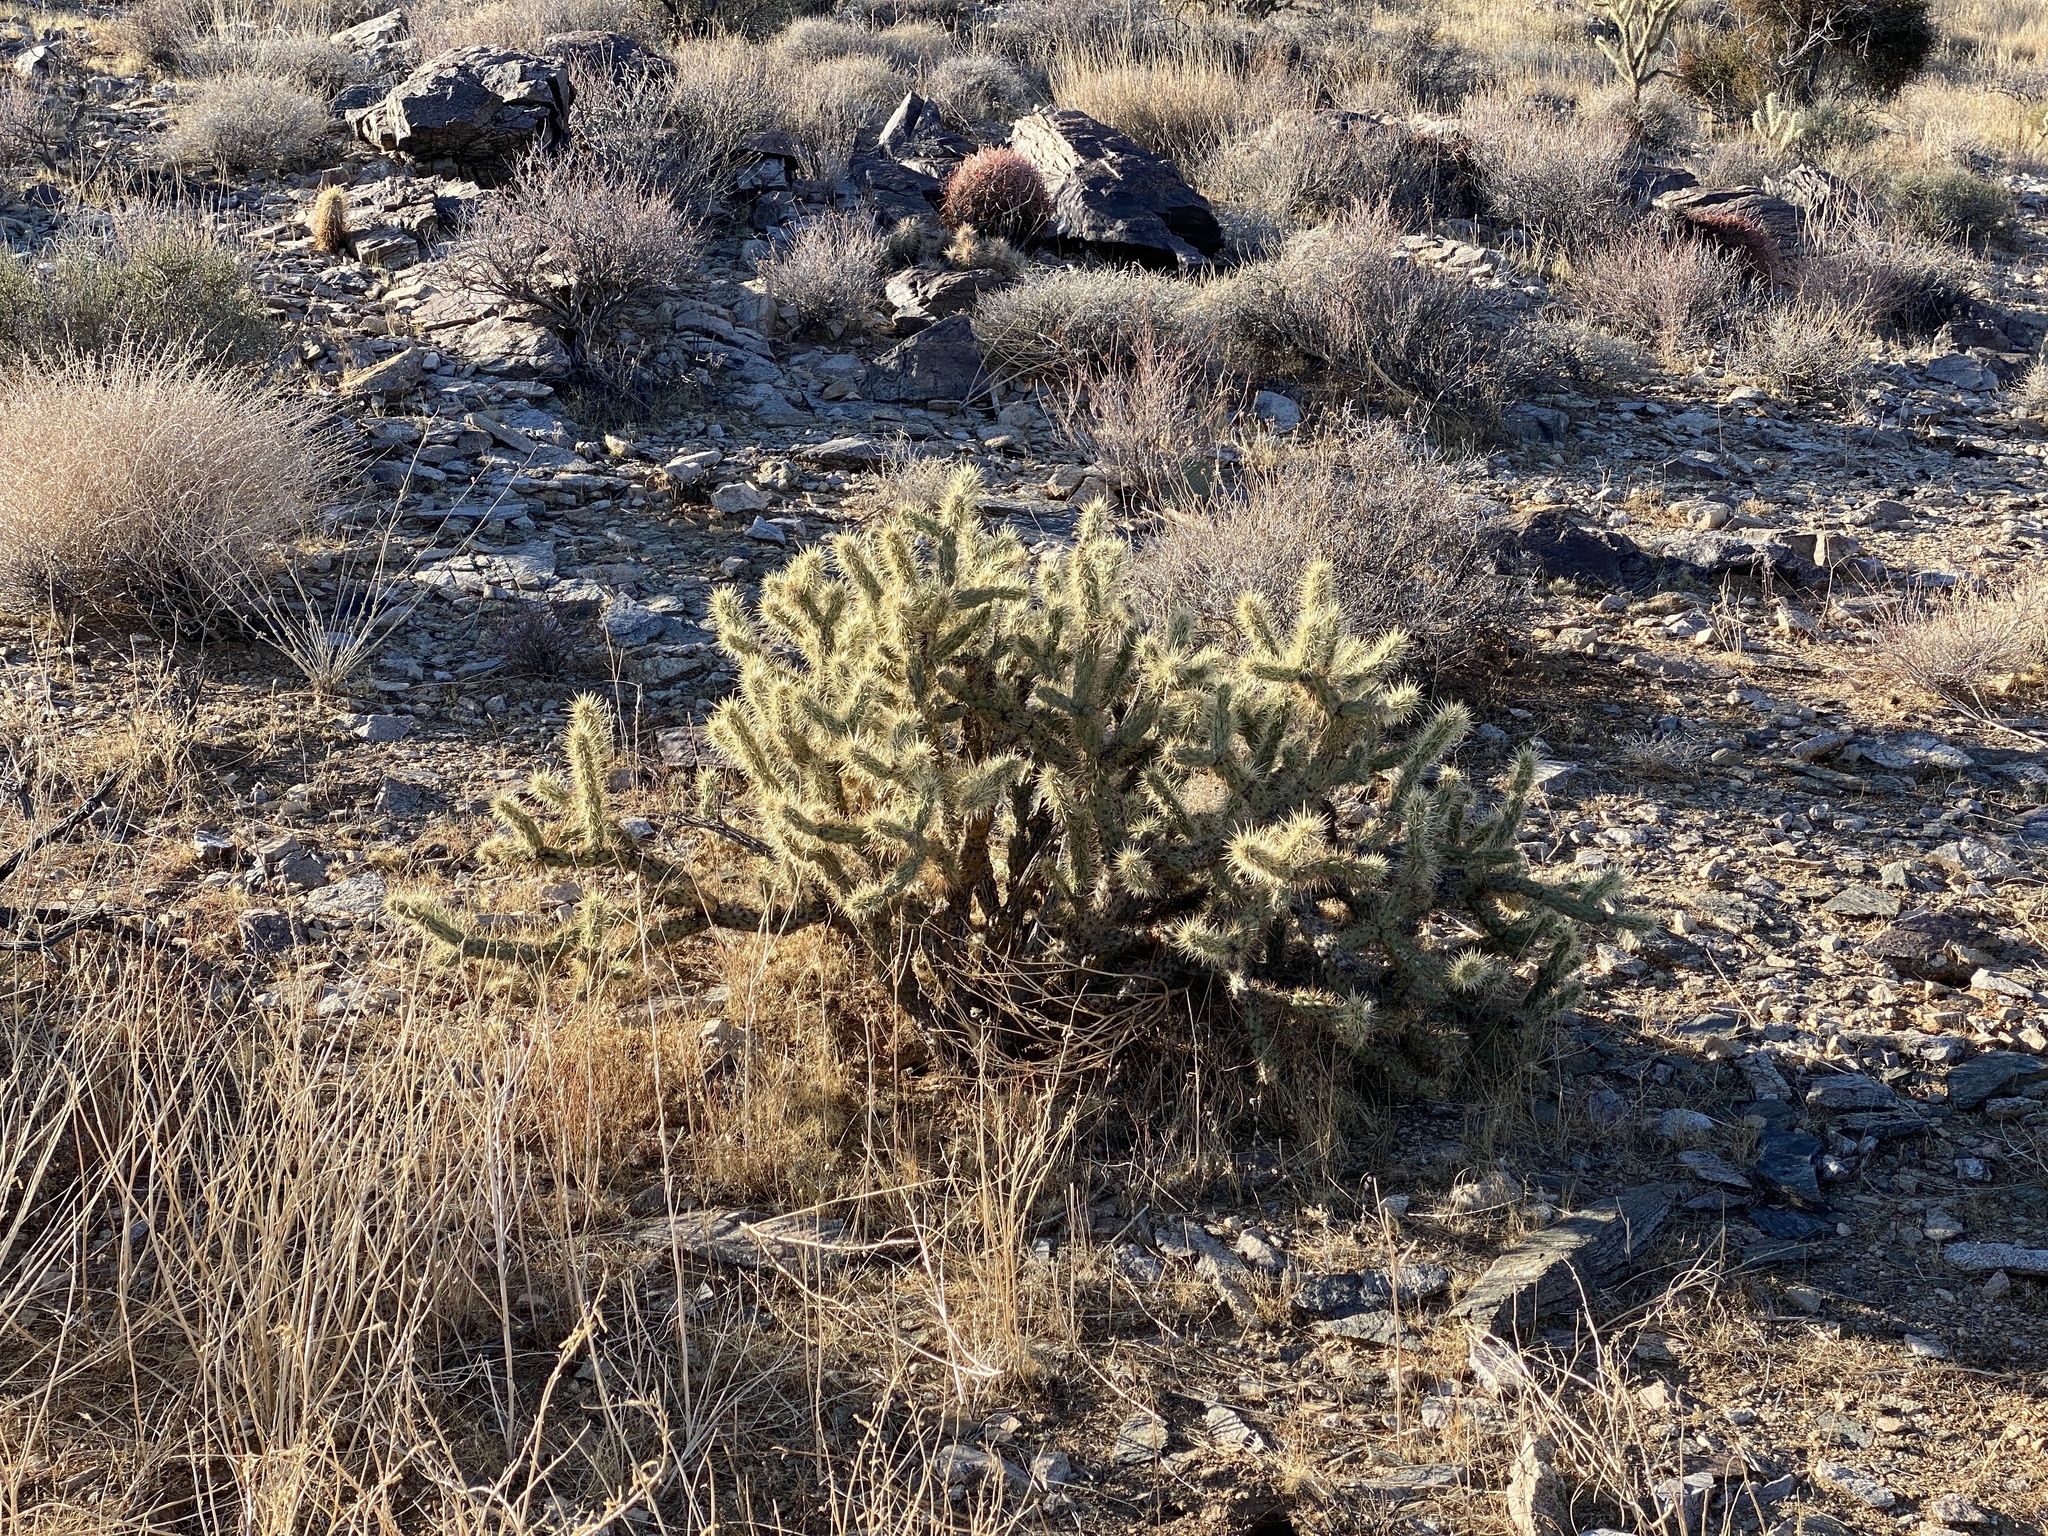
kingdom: Plantae
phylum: Tracheophyta
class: Magnoliopsida
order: Caryophyllales
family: Cactaceae
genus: Cylindropuntia
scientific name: Cylindropuntia acanthocarpa
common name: Buckhorn cholla
